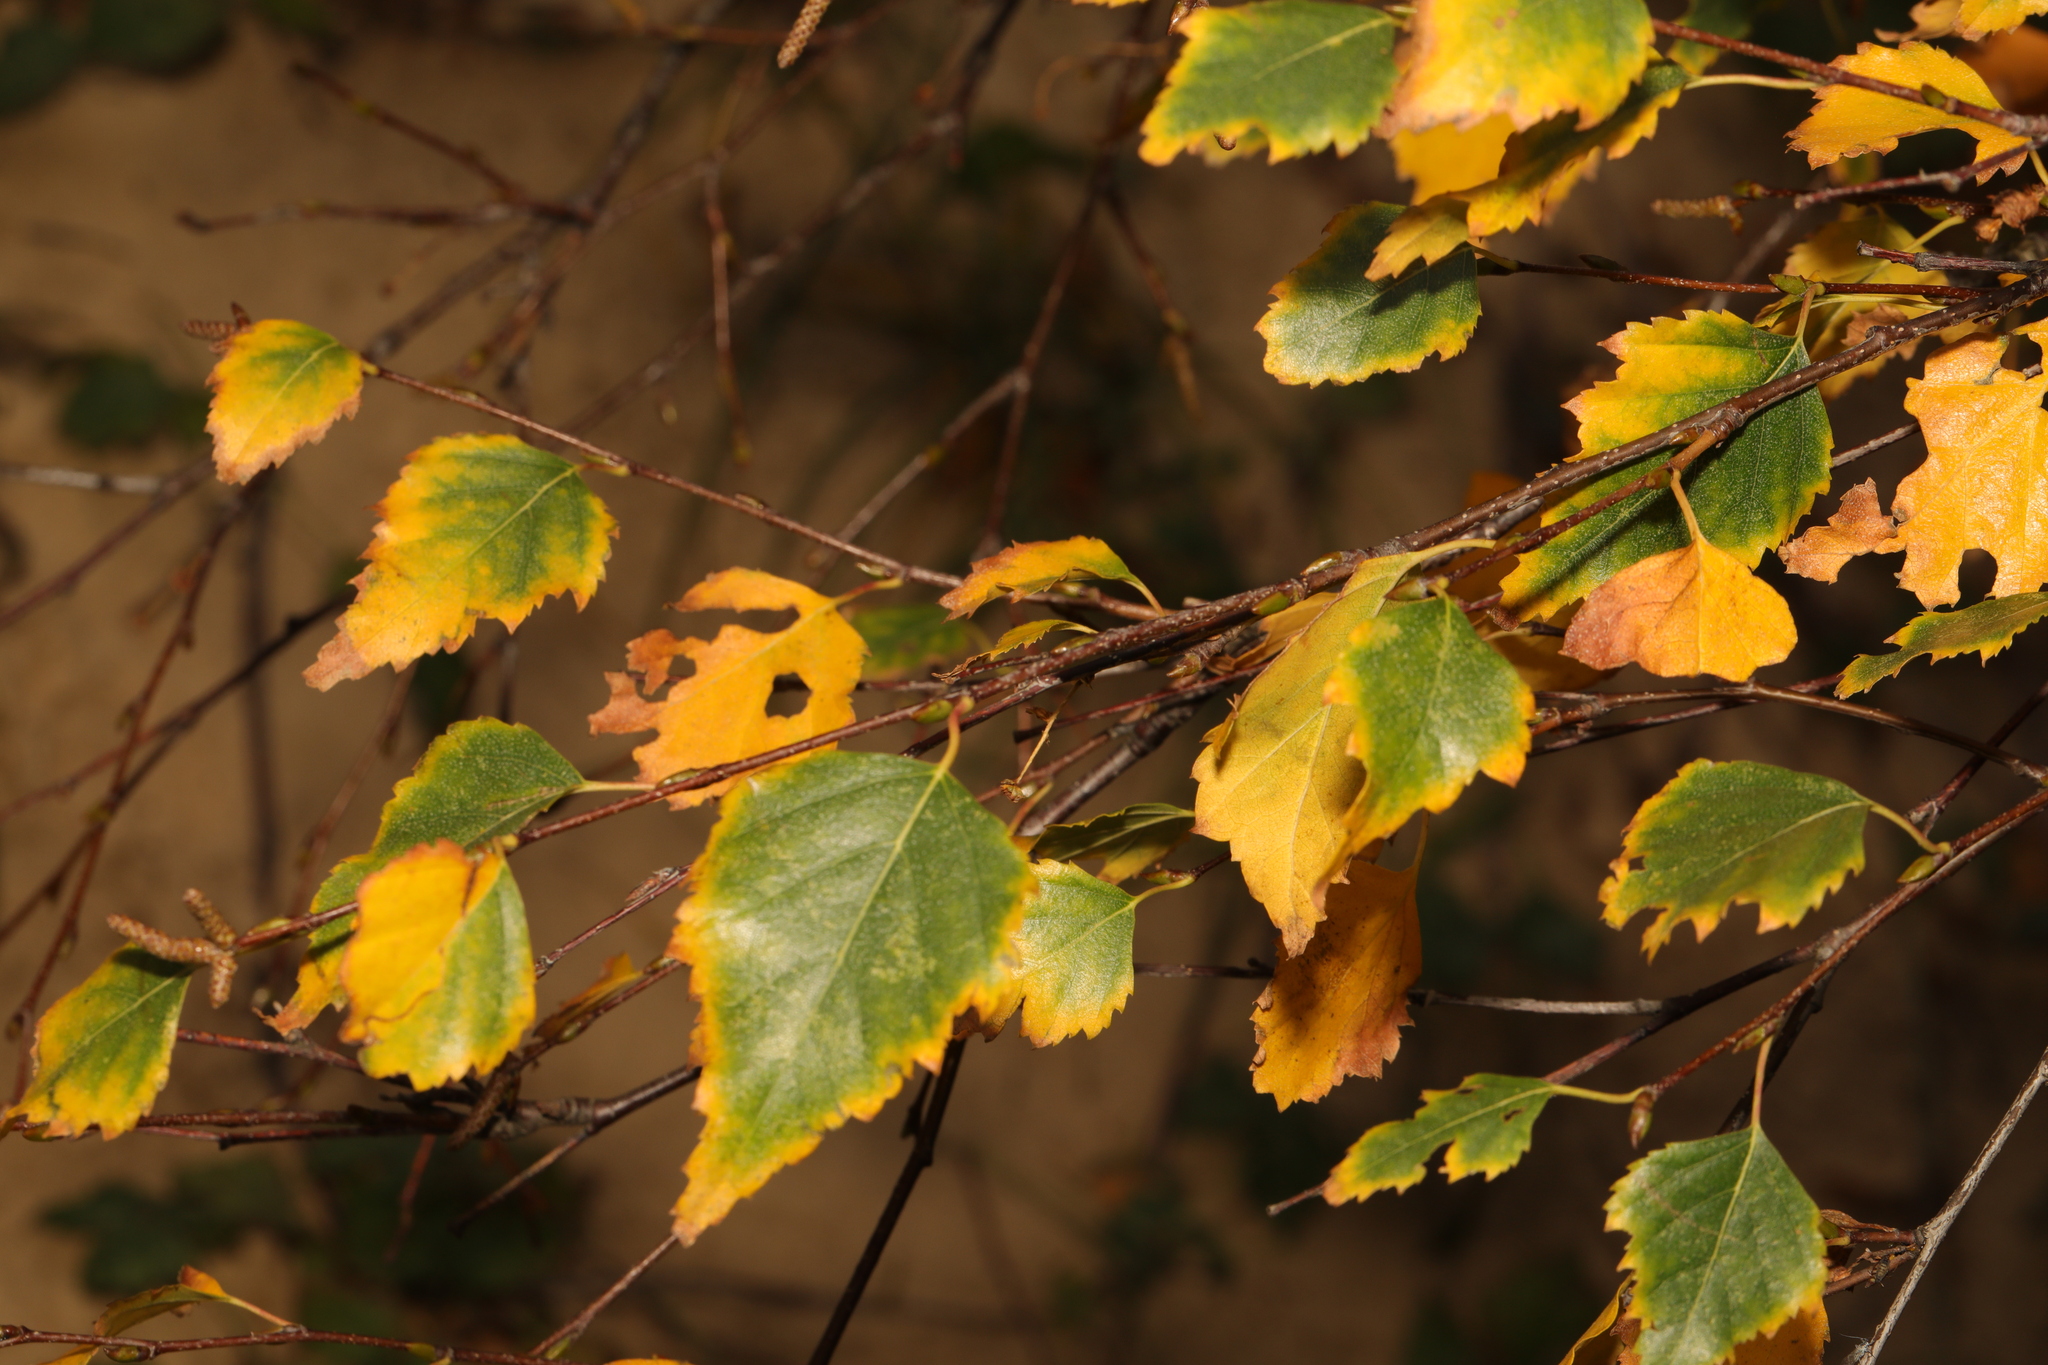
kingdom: Plantae
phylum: Tracheophyta
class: Magnoliopsida
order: Fagales
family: Betulaceae
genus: Betula
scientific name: Betula pendula
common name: Silver birch
